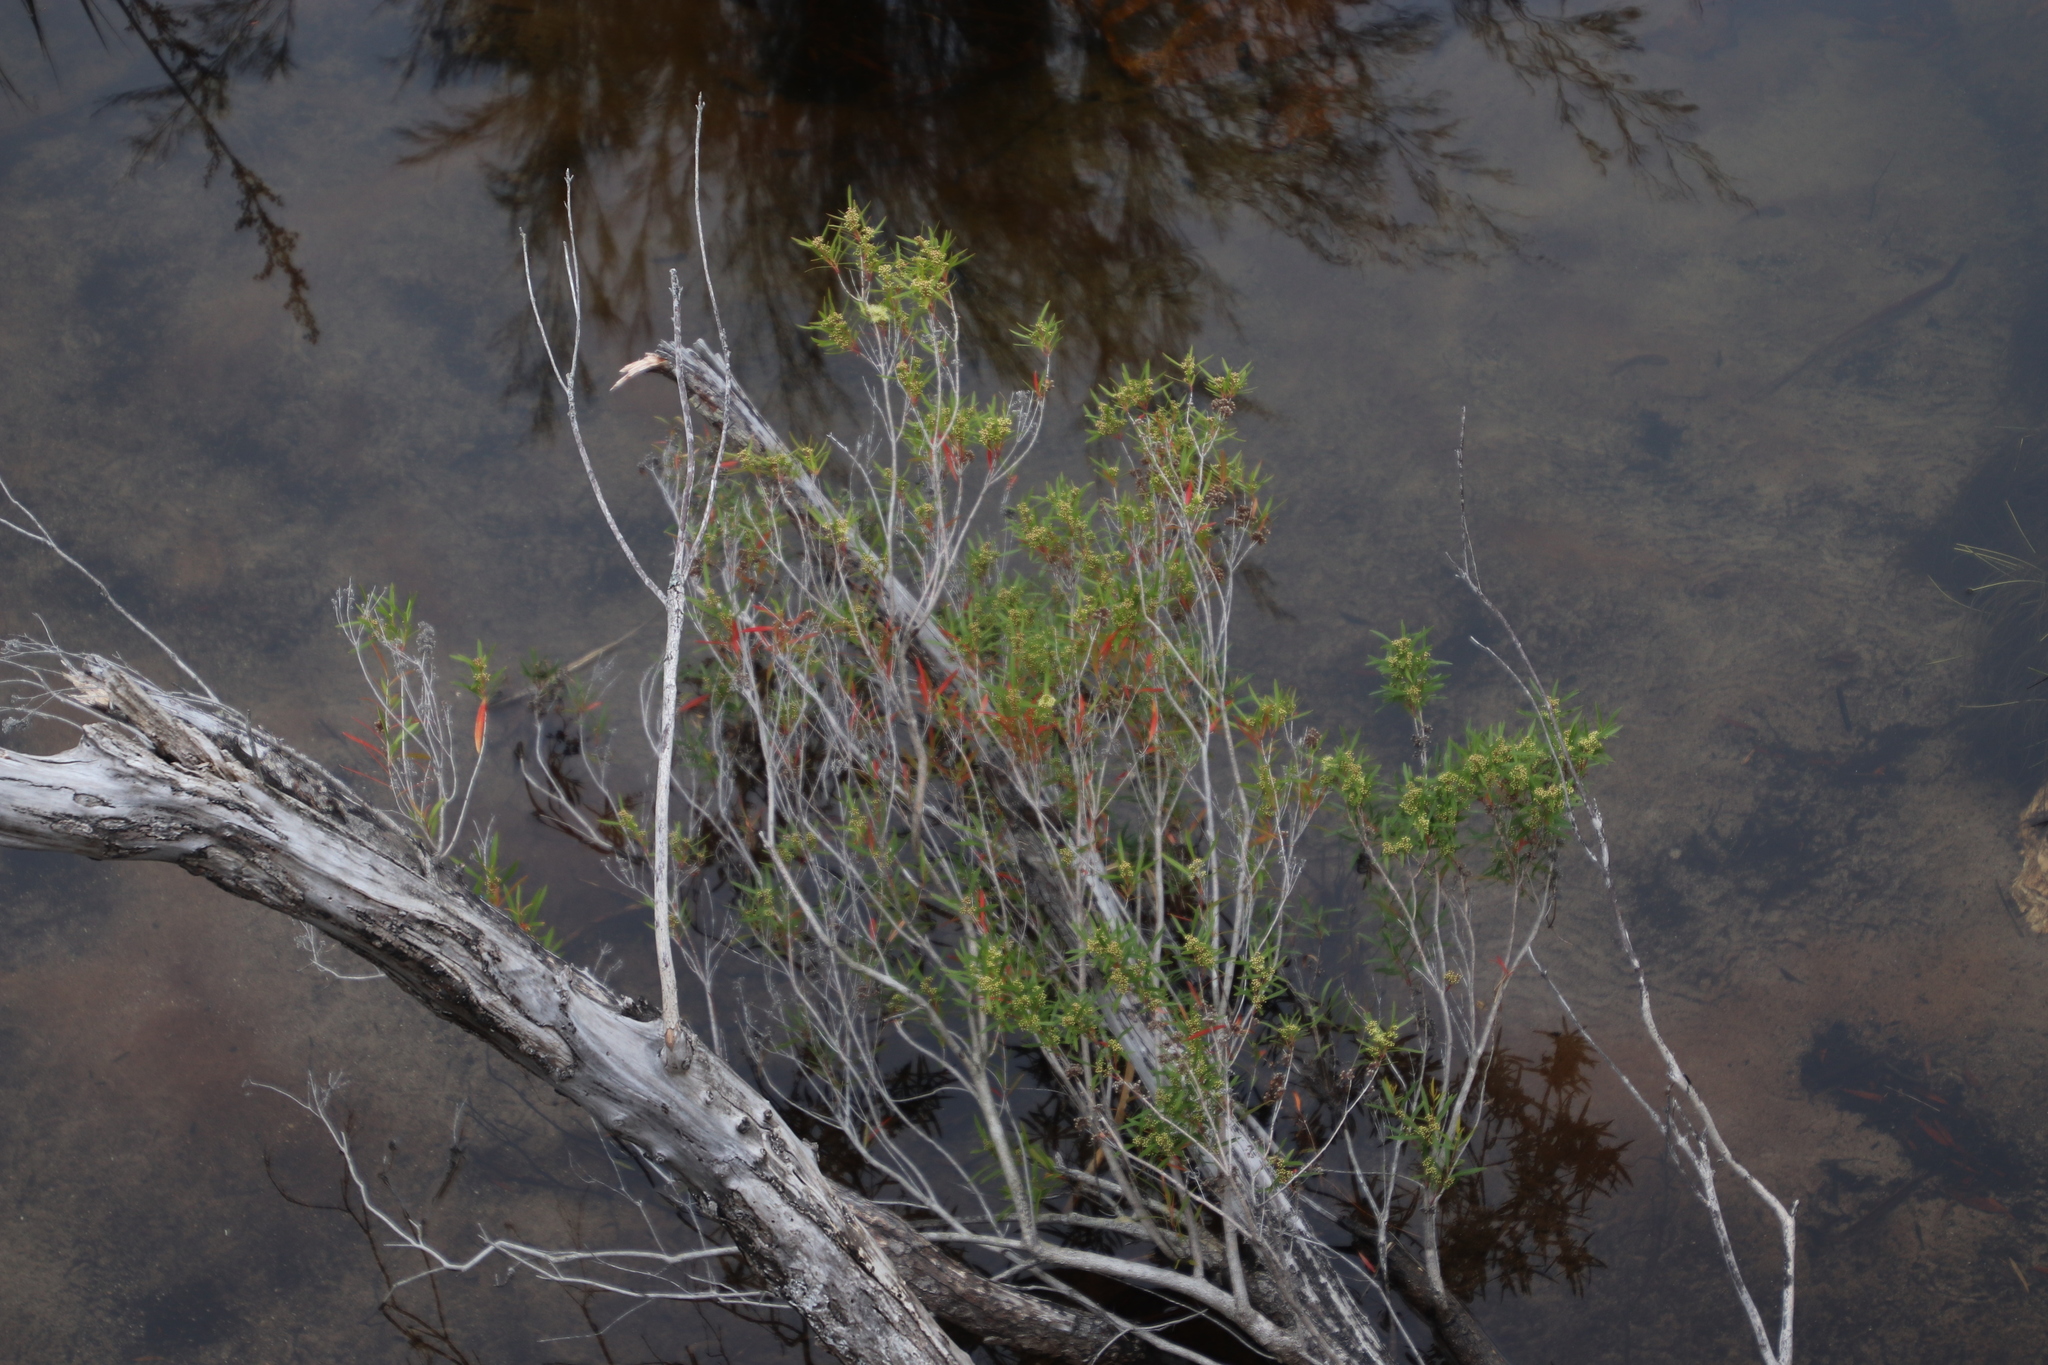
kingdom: Plantae
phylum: Tracheophyta
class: Magnoliopsida
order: Myrtales
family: Myrtaceae
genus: Callistemon
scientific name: Callistemon lanceolatus
